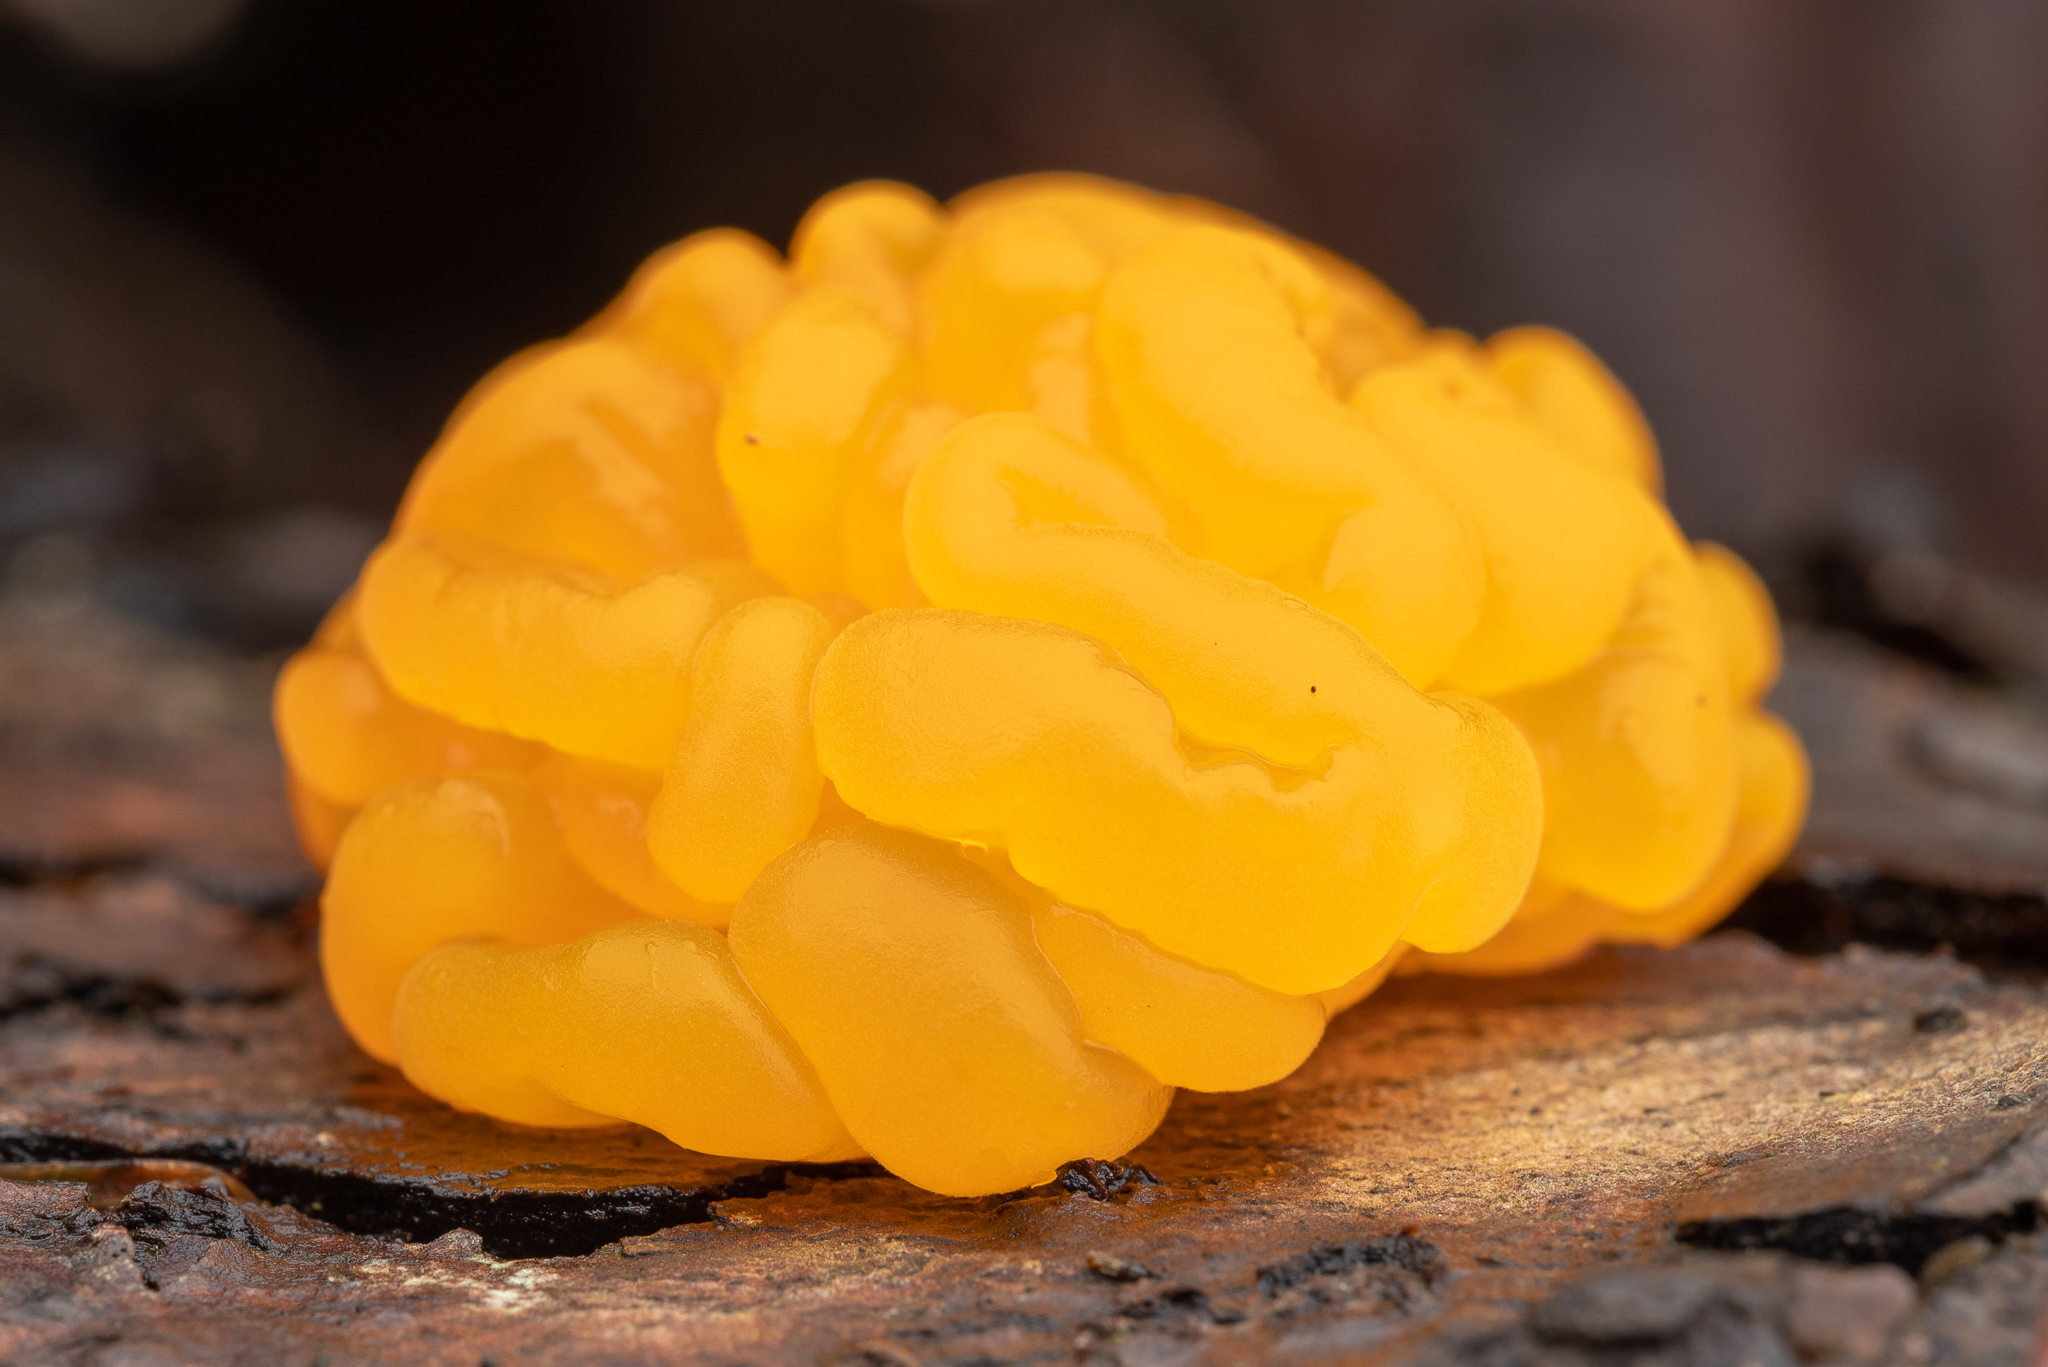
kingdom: Fungi
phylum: Basidiomycota
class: Dacrymycetes
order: Dacrymycetales
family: Dacrymycetaceae
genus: Dacrymyces
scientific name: Dacrymyces chrysospermus
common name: Orange jelly spot
